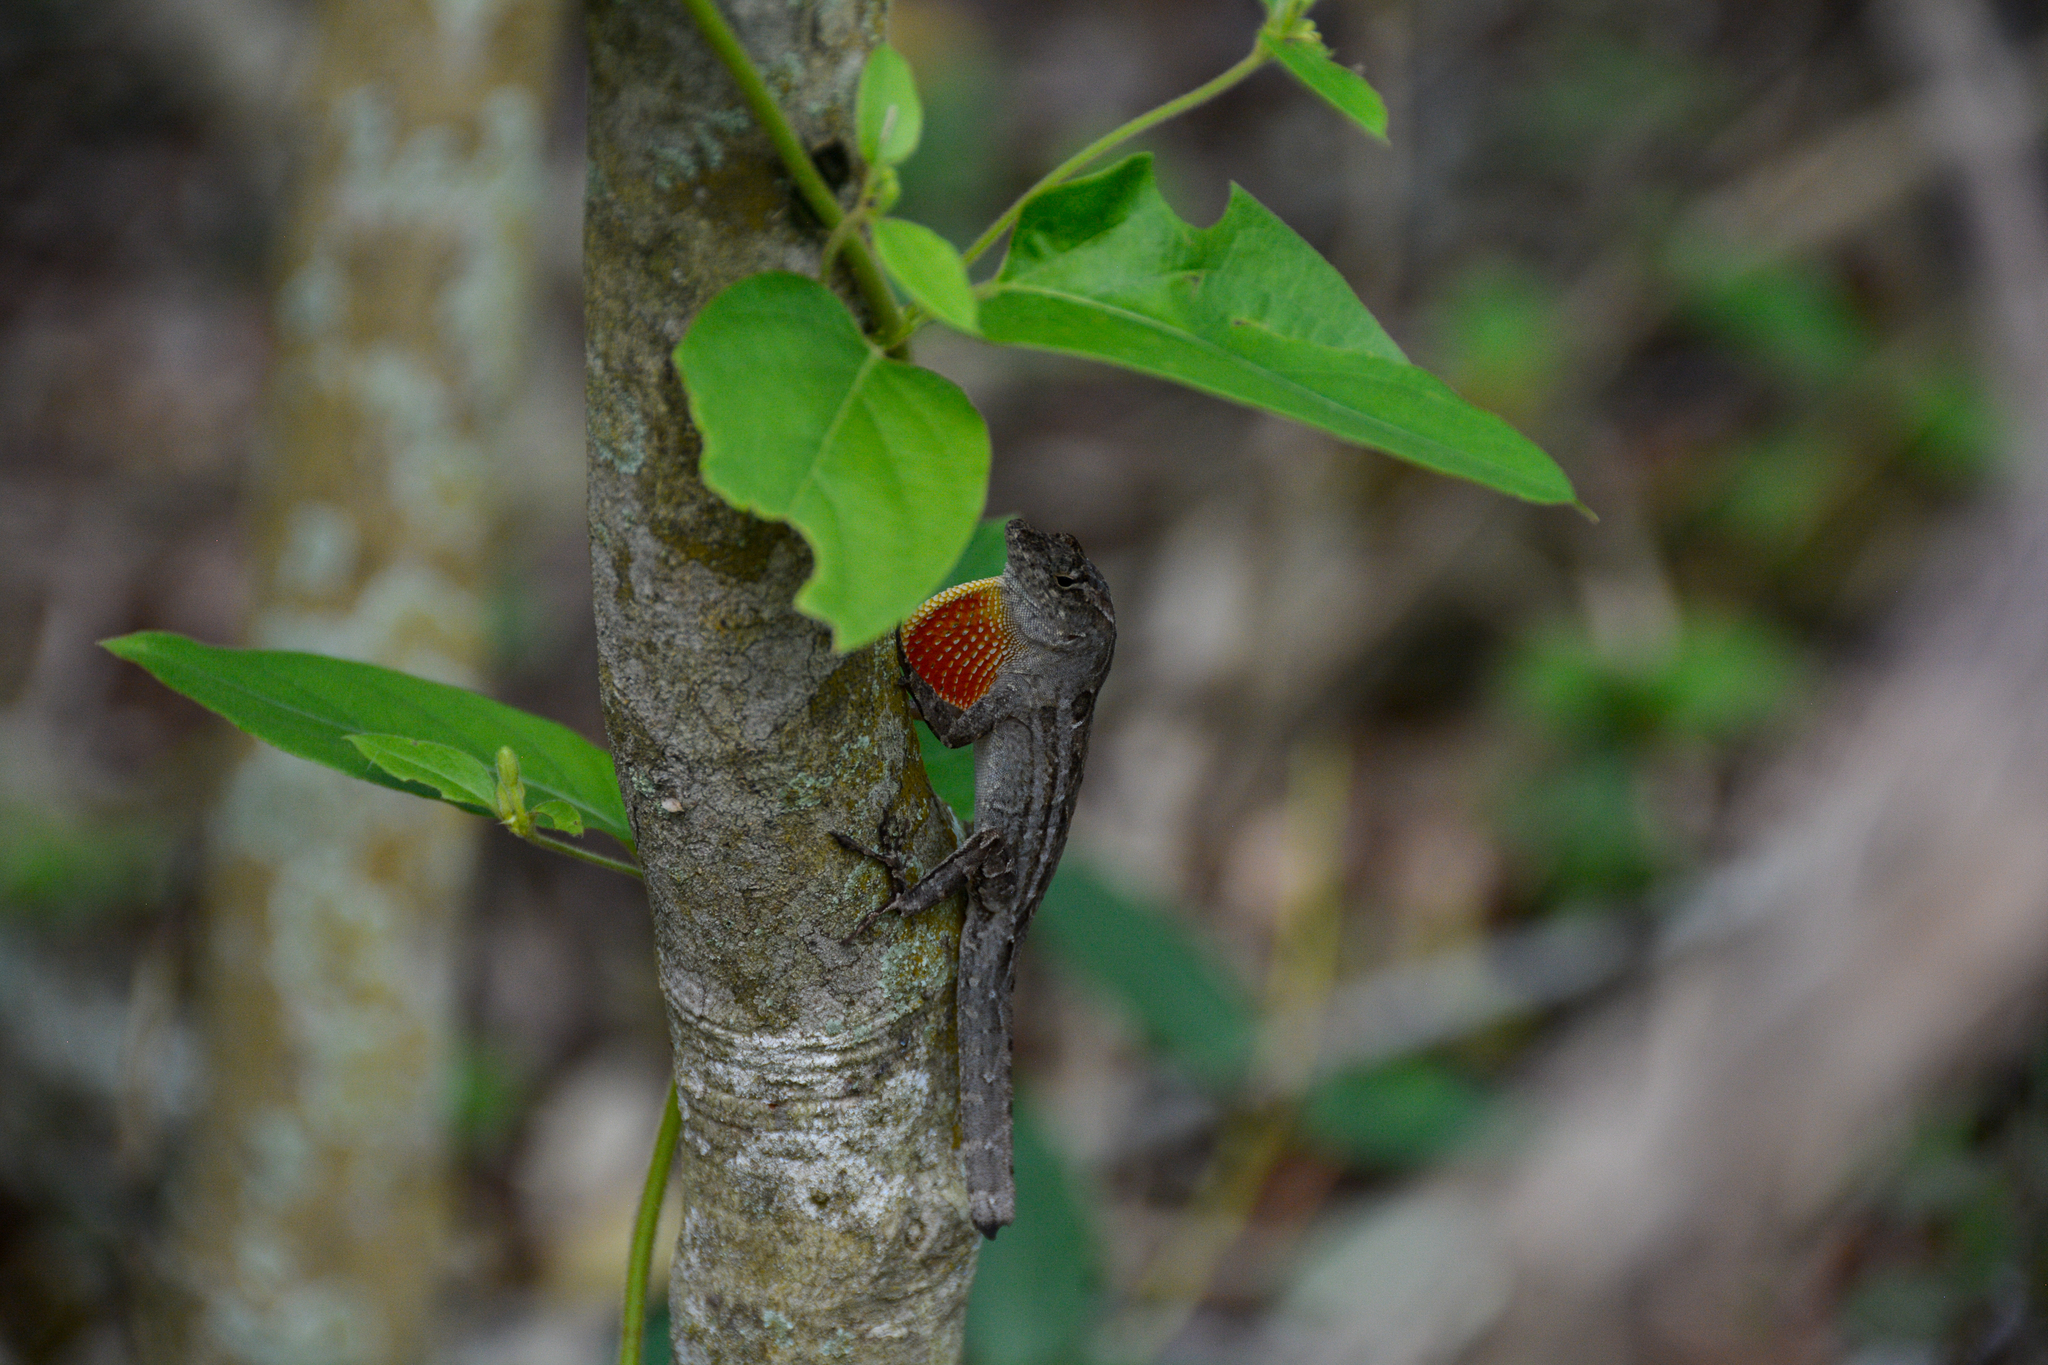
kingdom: Animalia
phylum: Chordata
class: Squamata
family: Dactyloidae
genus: Anolis
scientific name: Anolis sagrei
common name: Brown anole
